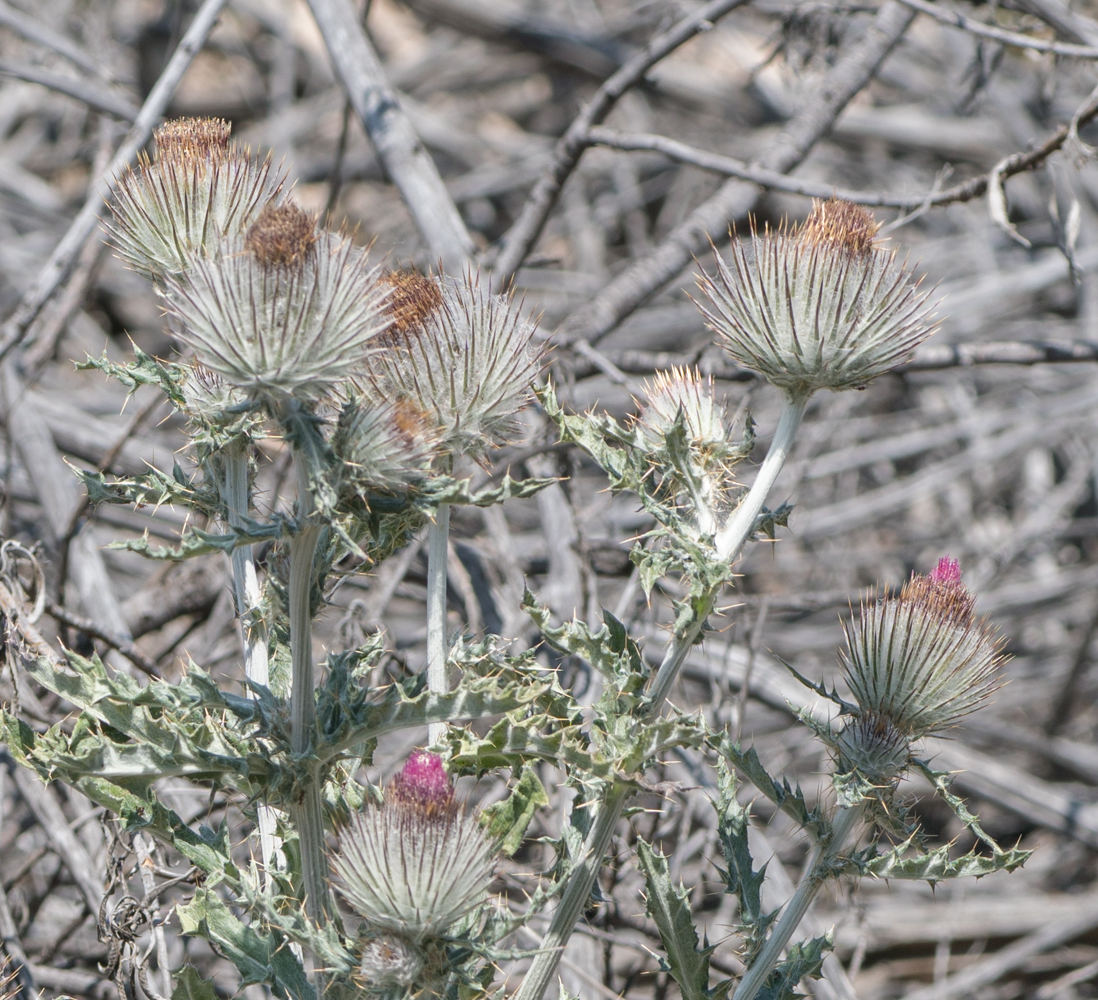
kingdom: Plantae
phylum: Tracheophyta
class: Magnoliopsida
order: Asterales
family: Asteraceae
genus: Cirsium
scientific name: Cirsium occidentale
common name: Western thistle
